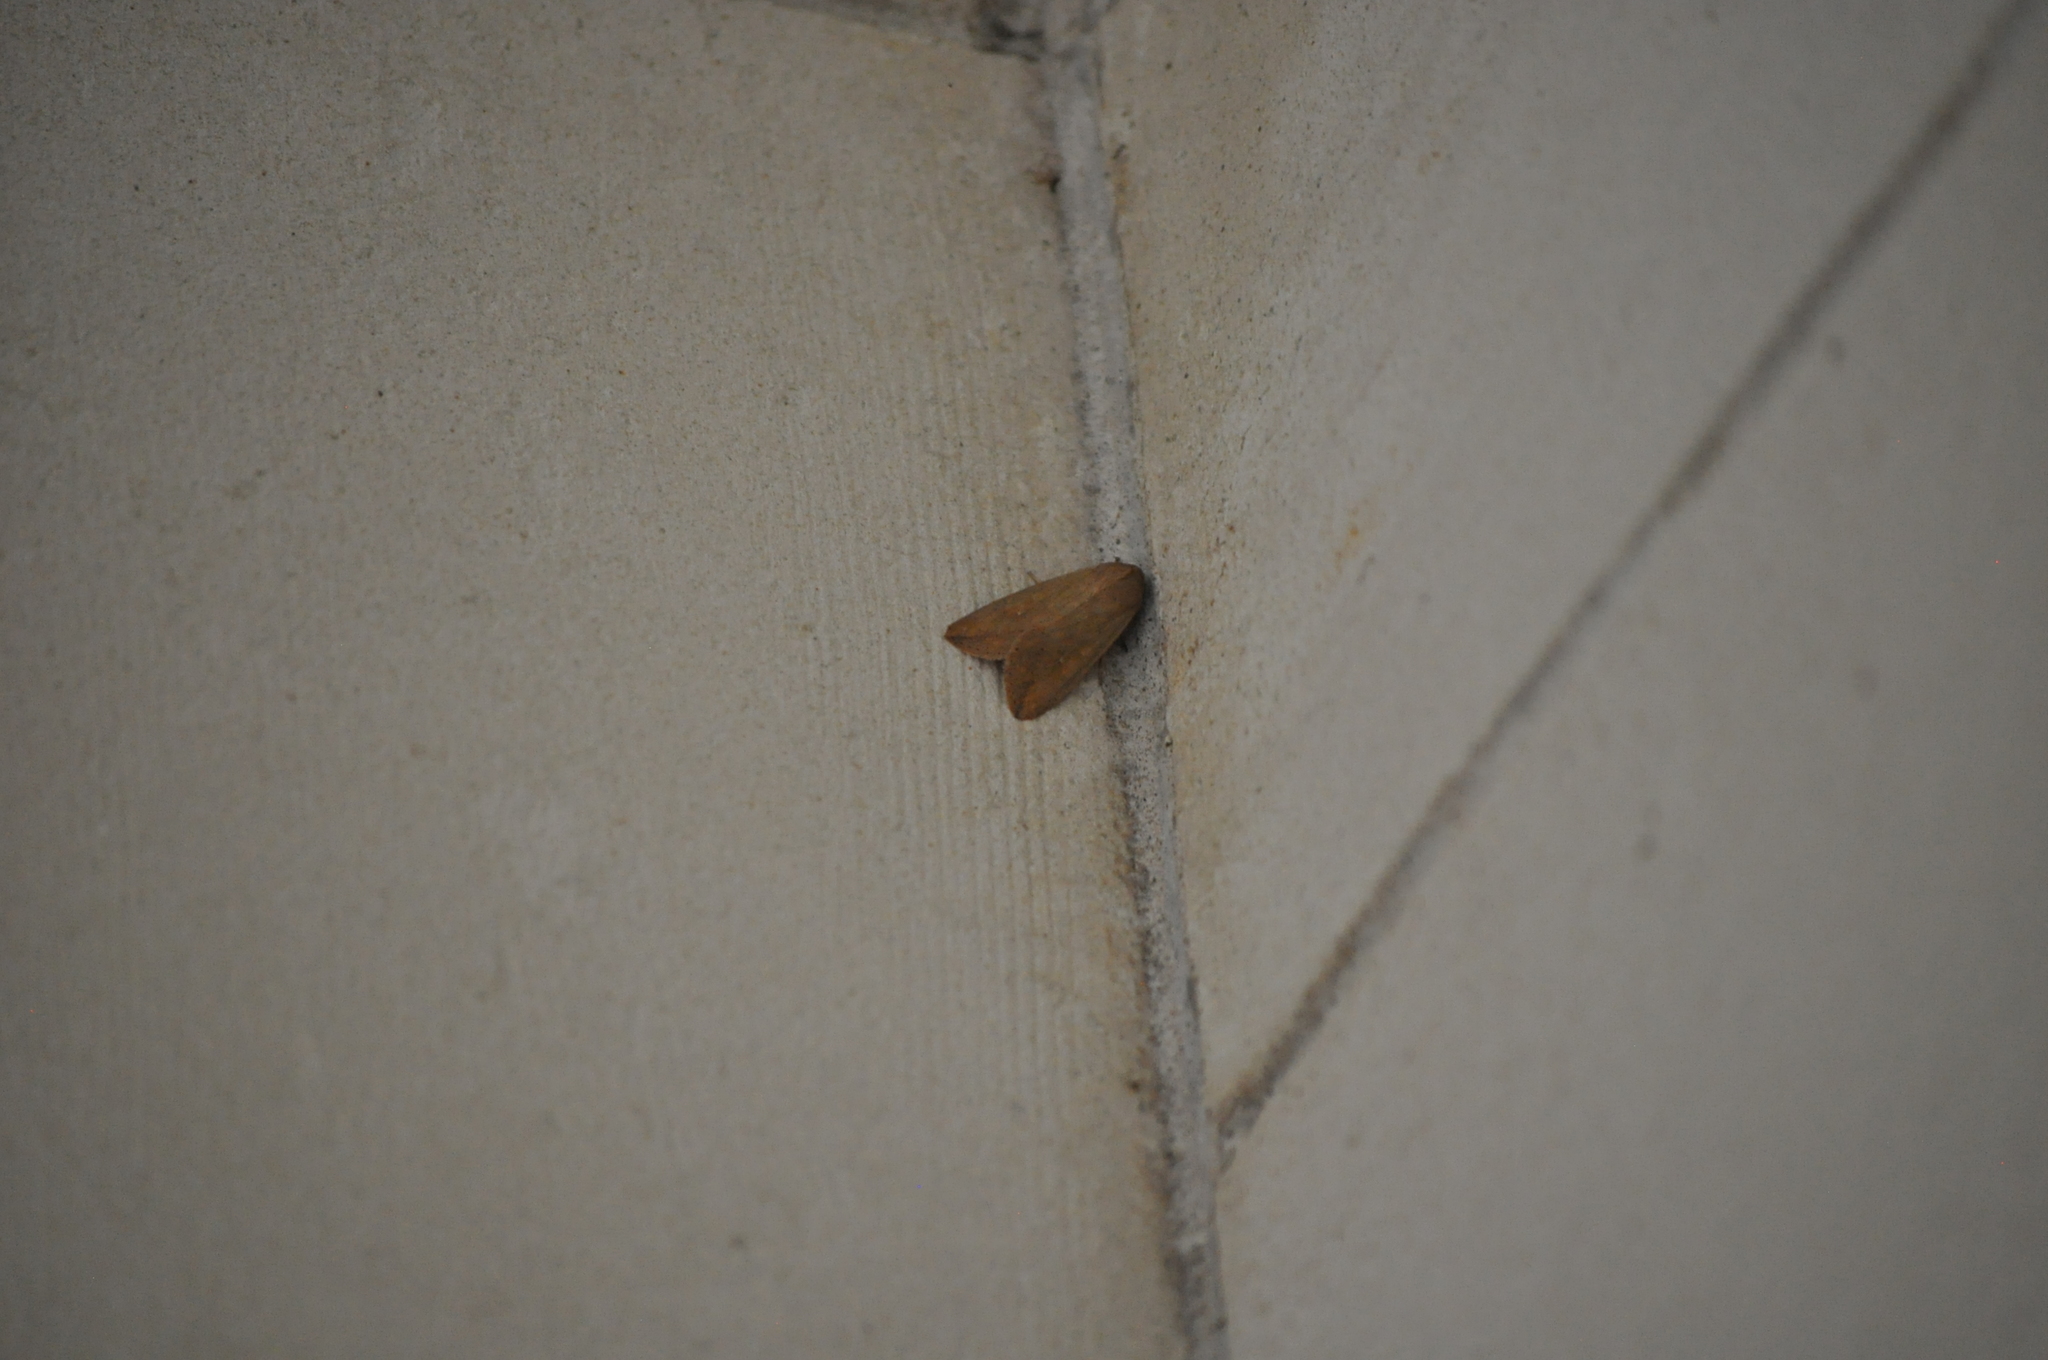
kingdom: Animalia
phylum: Arthropoda
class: Insecta
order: Lepidoptera
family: Noctuidae
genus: Mythimna
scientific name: Mythimna separata
